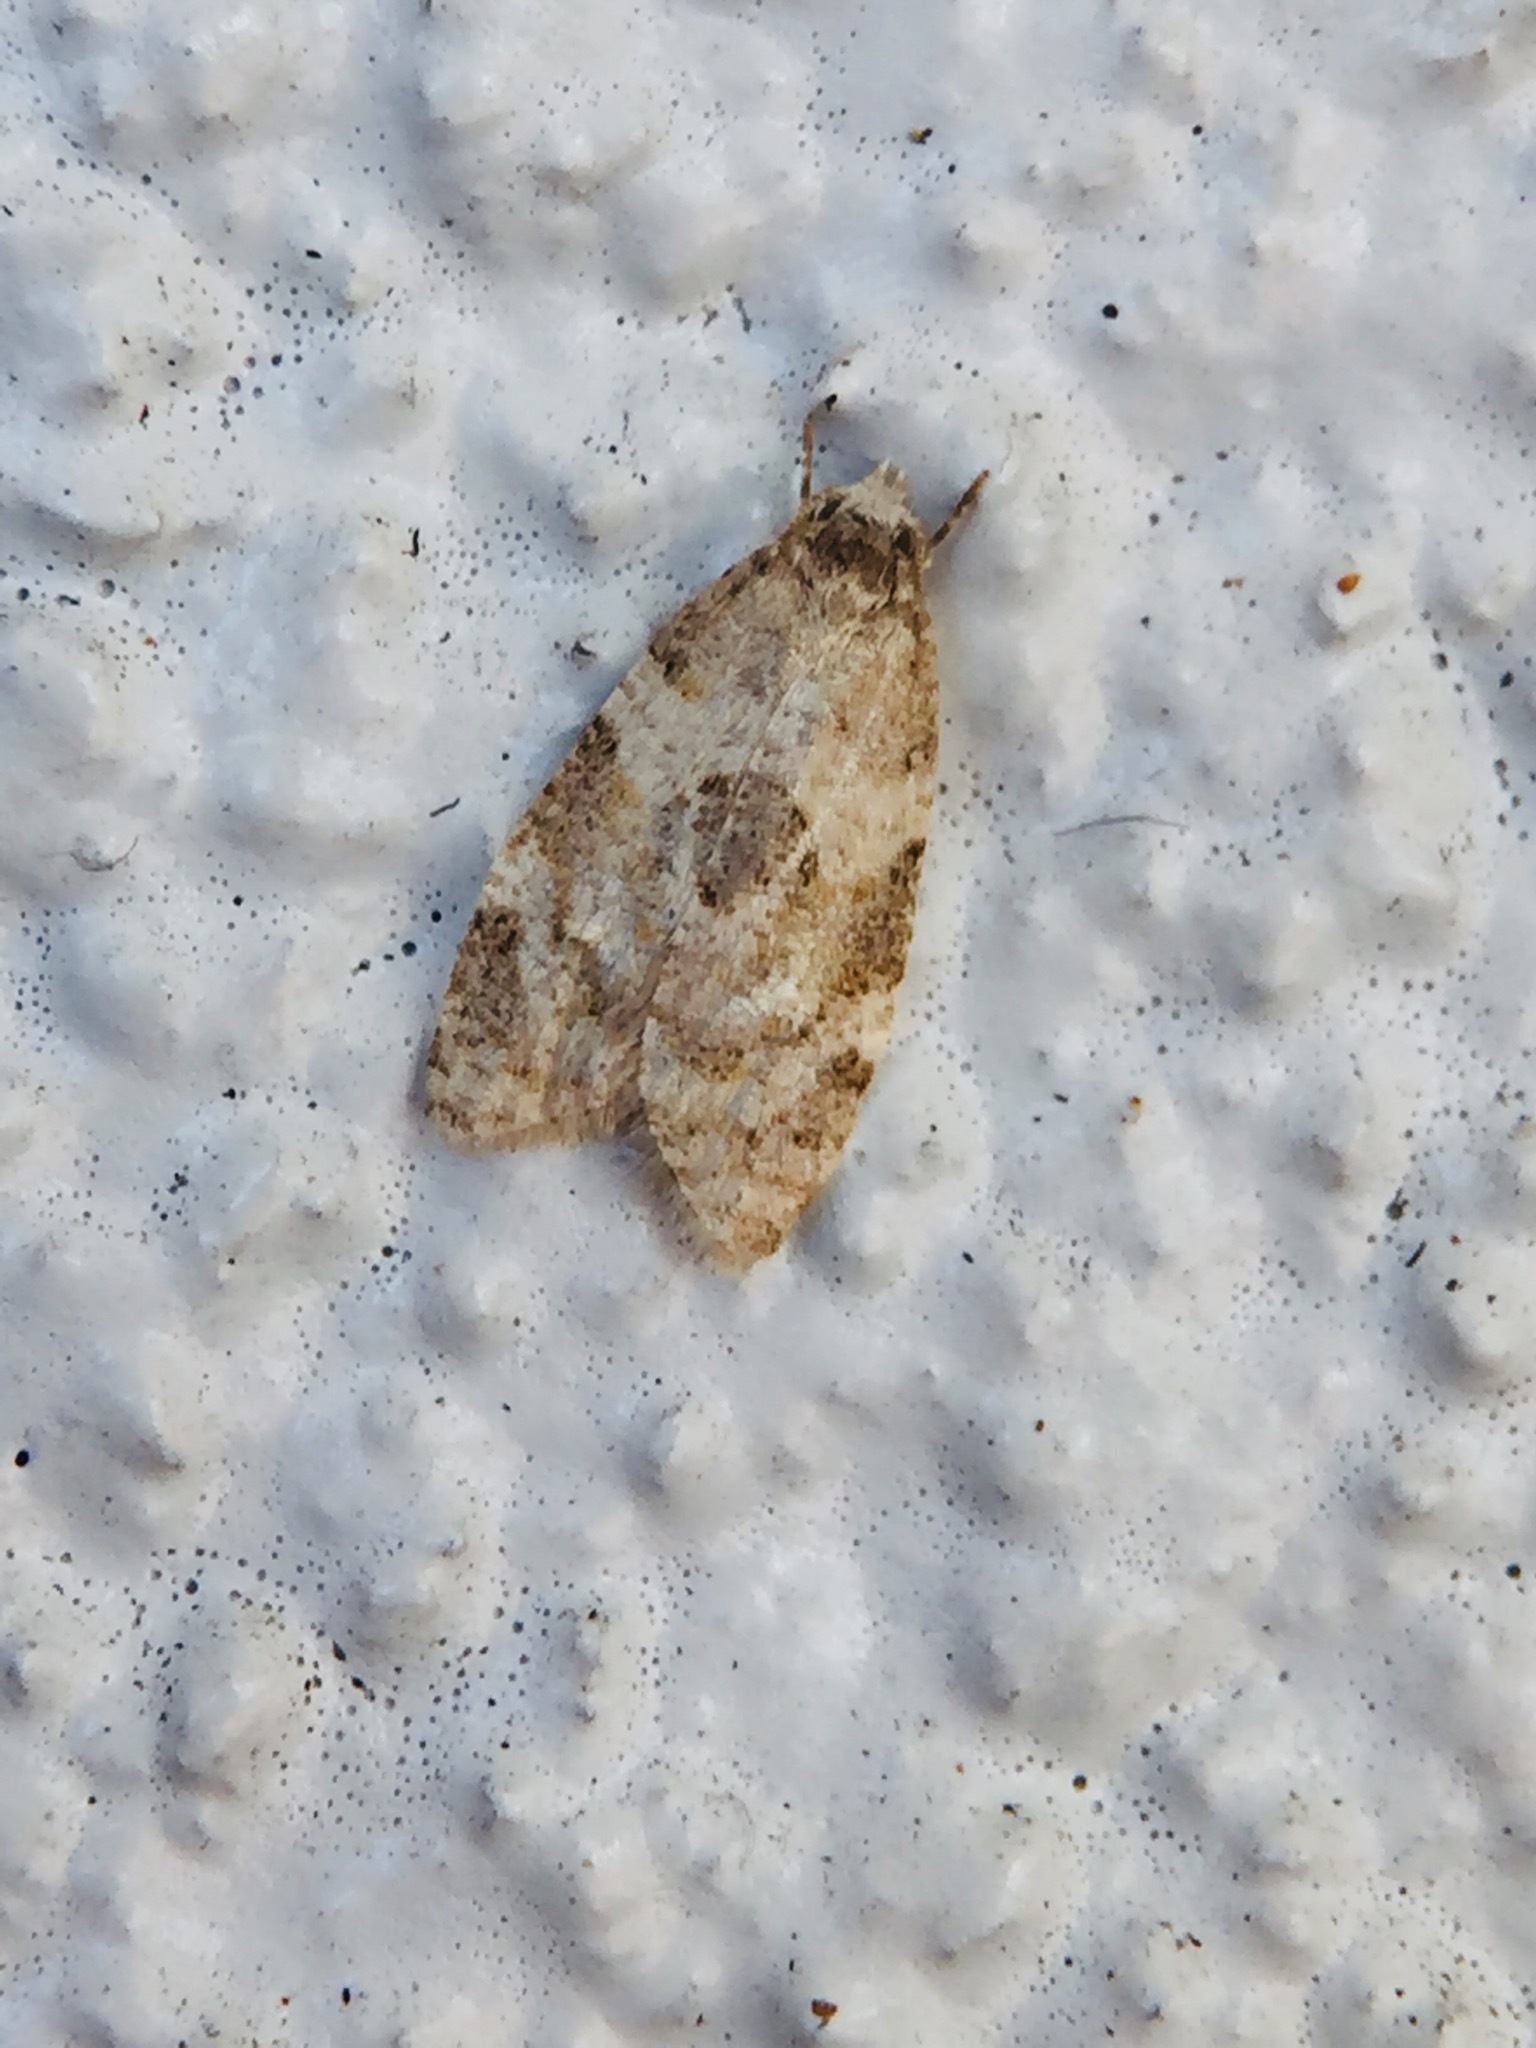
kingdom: Animalia
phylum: Arthropoda
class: Insecta
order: Lepidoptera
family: Tortricidae
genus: Dipterina
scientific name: Dipterina imbriferana
